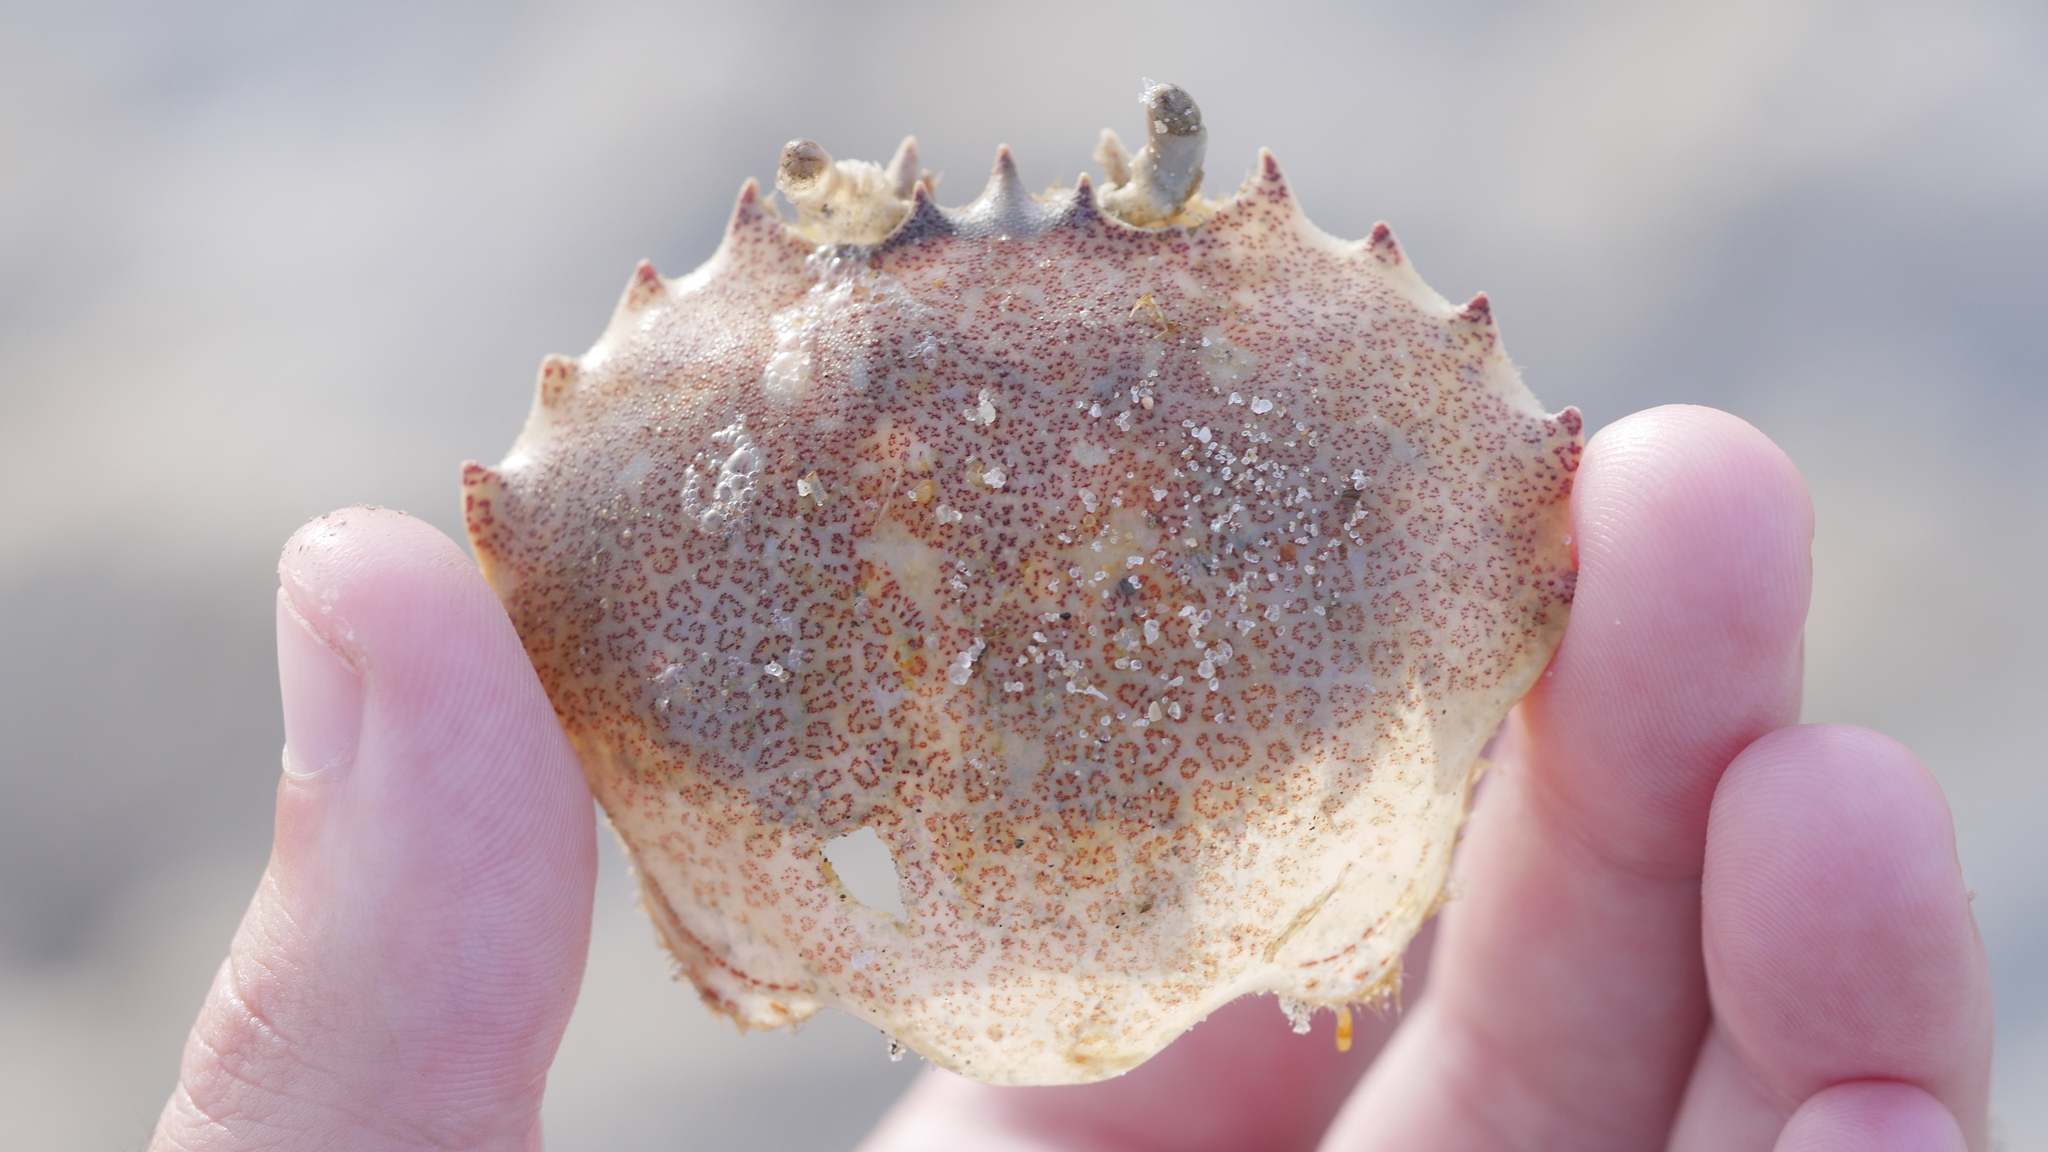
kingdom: Animalia
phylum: Arthropoda
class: Malacostraca
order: Decapoda
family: Ovalipidae
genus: Ovalipes
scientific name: Ovalipes ocellatus
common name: Lady crab
